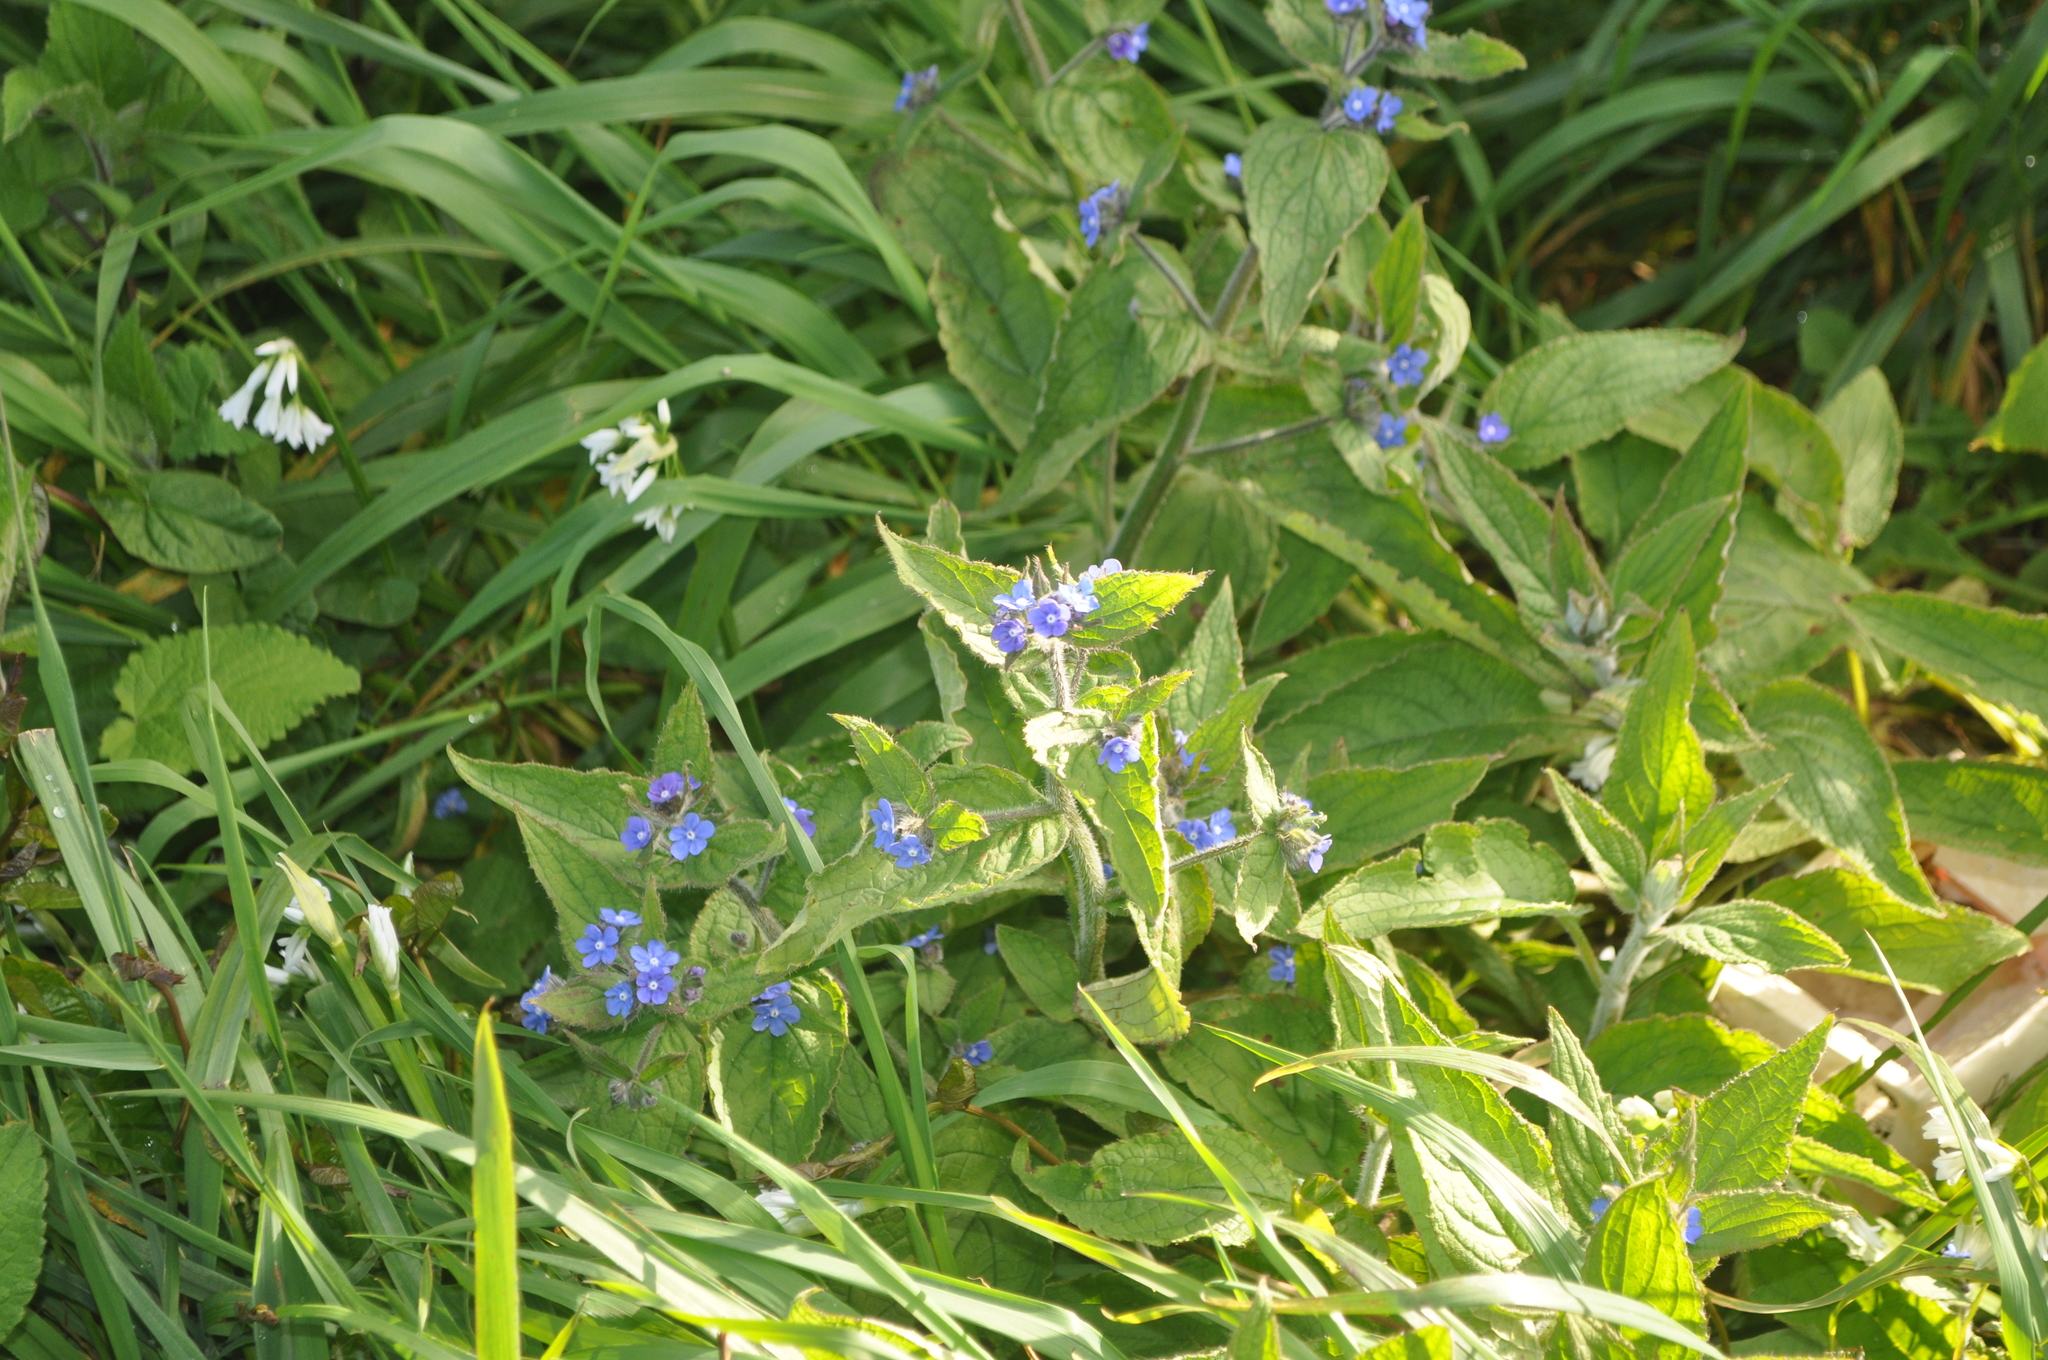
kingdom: Plantae
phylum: Tracheophyta
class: Magnoliopsida
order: Boraginales
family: Boraginaceae
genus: Pentaglottis
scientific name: Pentaglottis sempervirens
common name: Green alkanet
